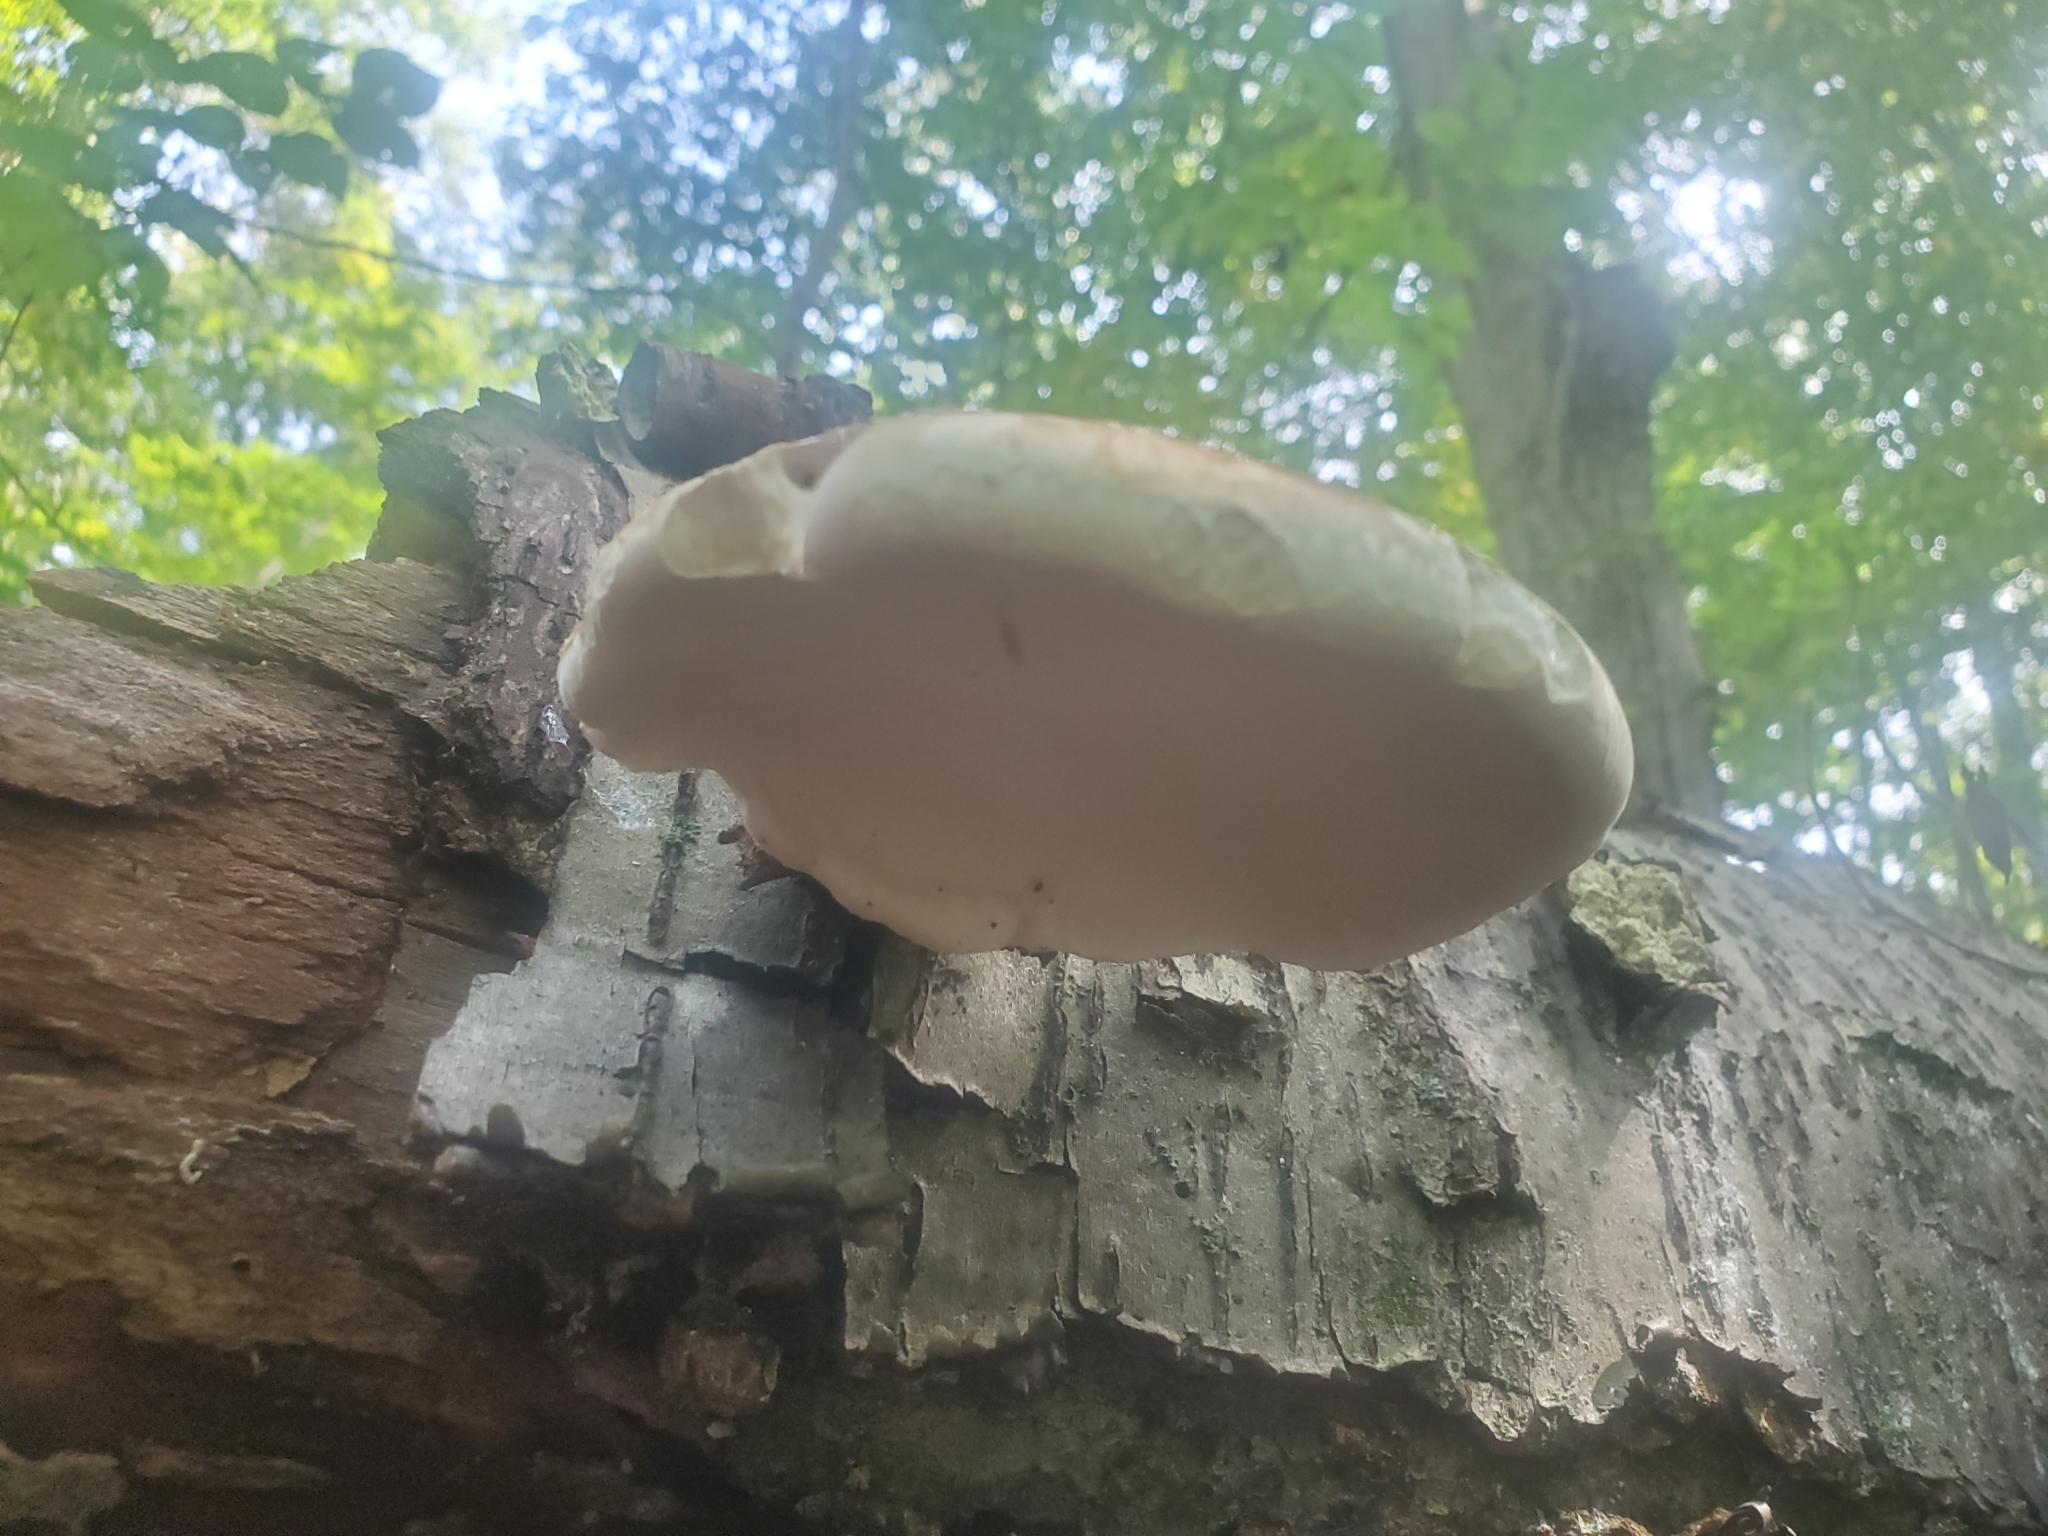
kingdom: Fungi
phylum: Basidiomycota
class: Agaricomycetes
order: Polyporales
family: Fomitopsidaceae
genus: Fomitopsis
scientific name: Fomitopsis betulina
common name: Birch polypore
